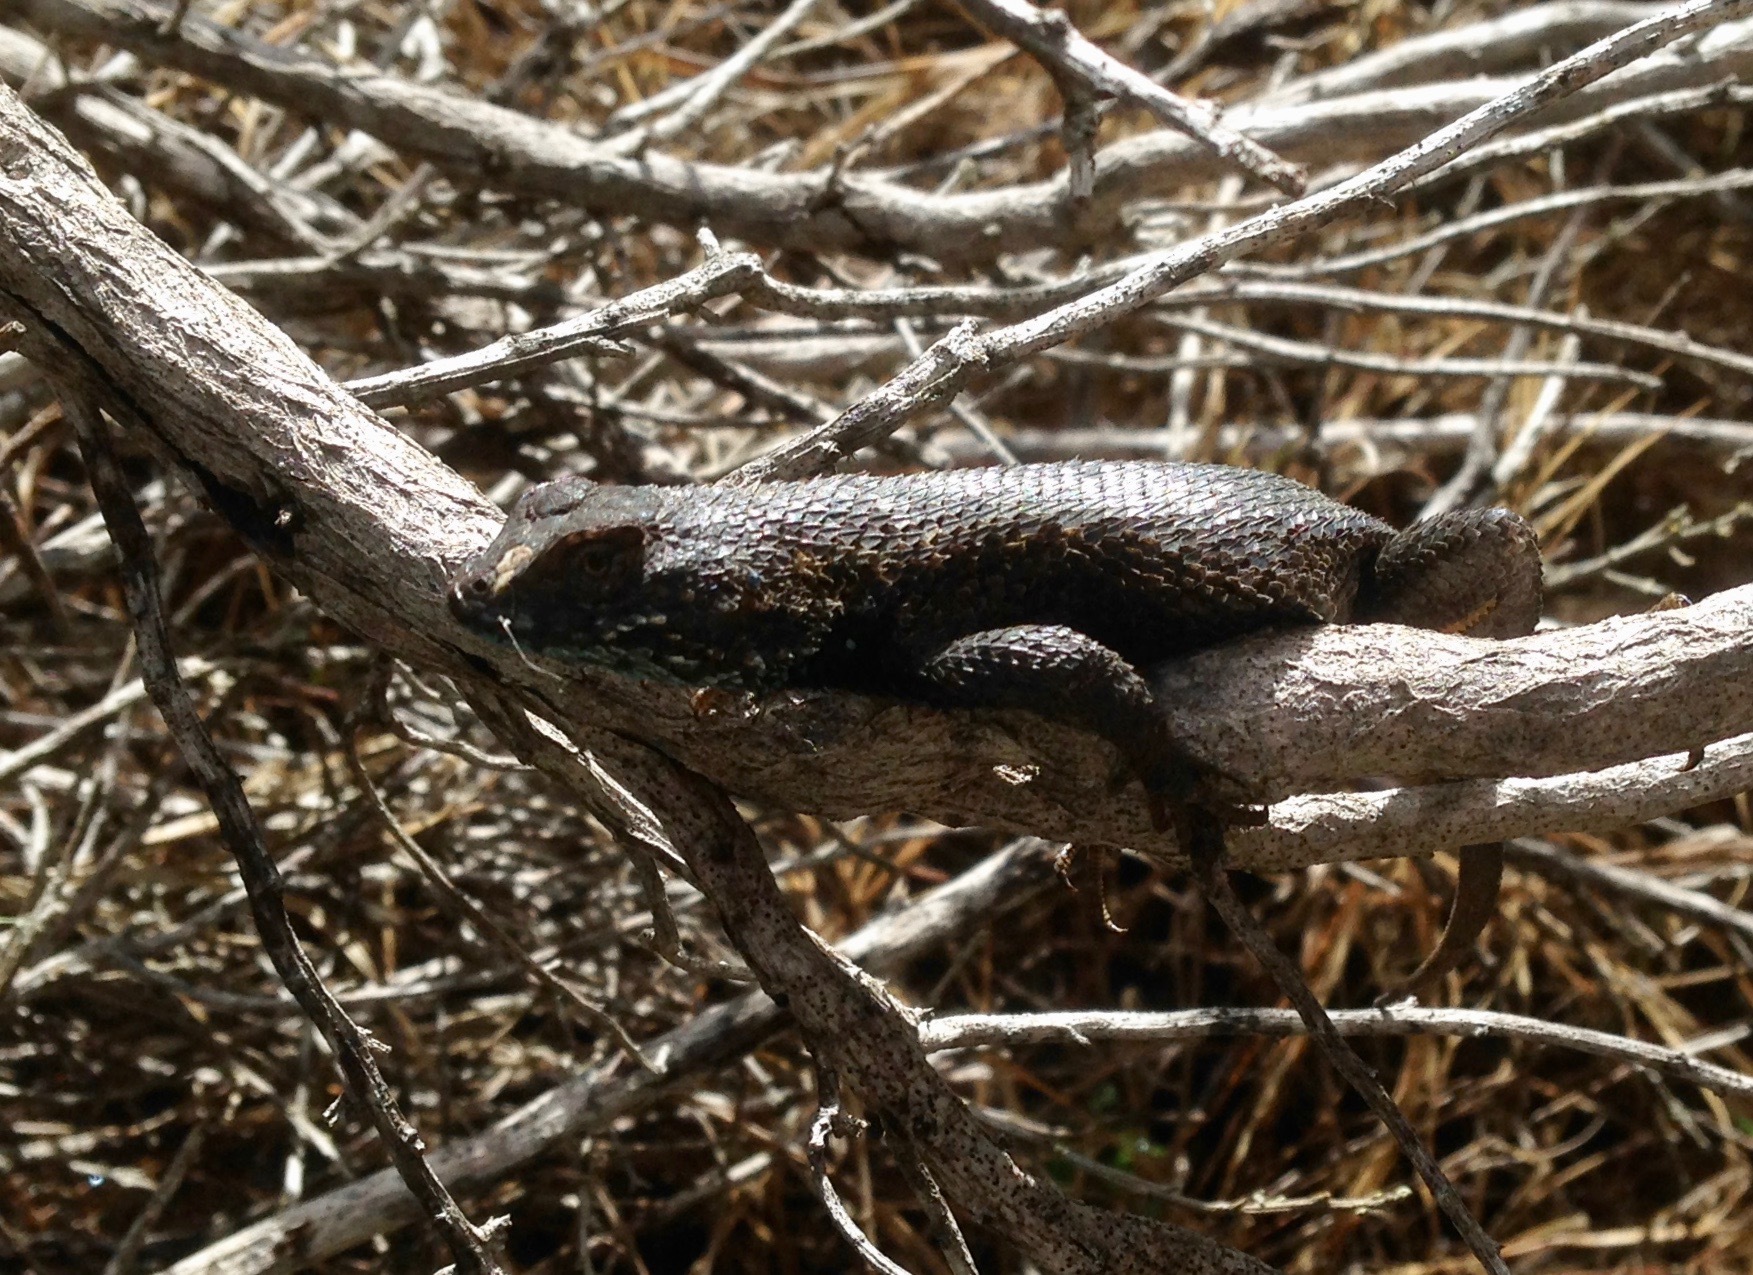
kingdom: Animalia
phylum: Chordata
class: Squamata
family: Phrynosomatidae
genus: Sceloporus
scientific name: Sceloporus becki
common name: Island fence lizard
